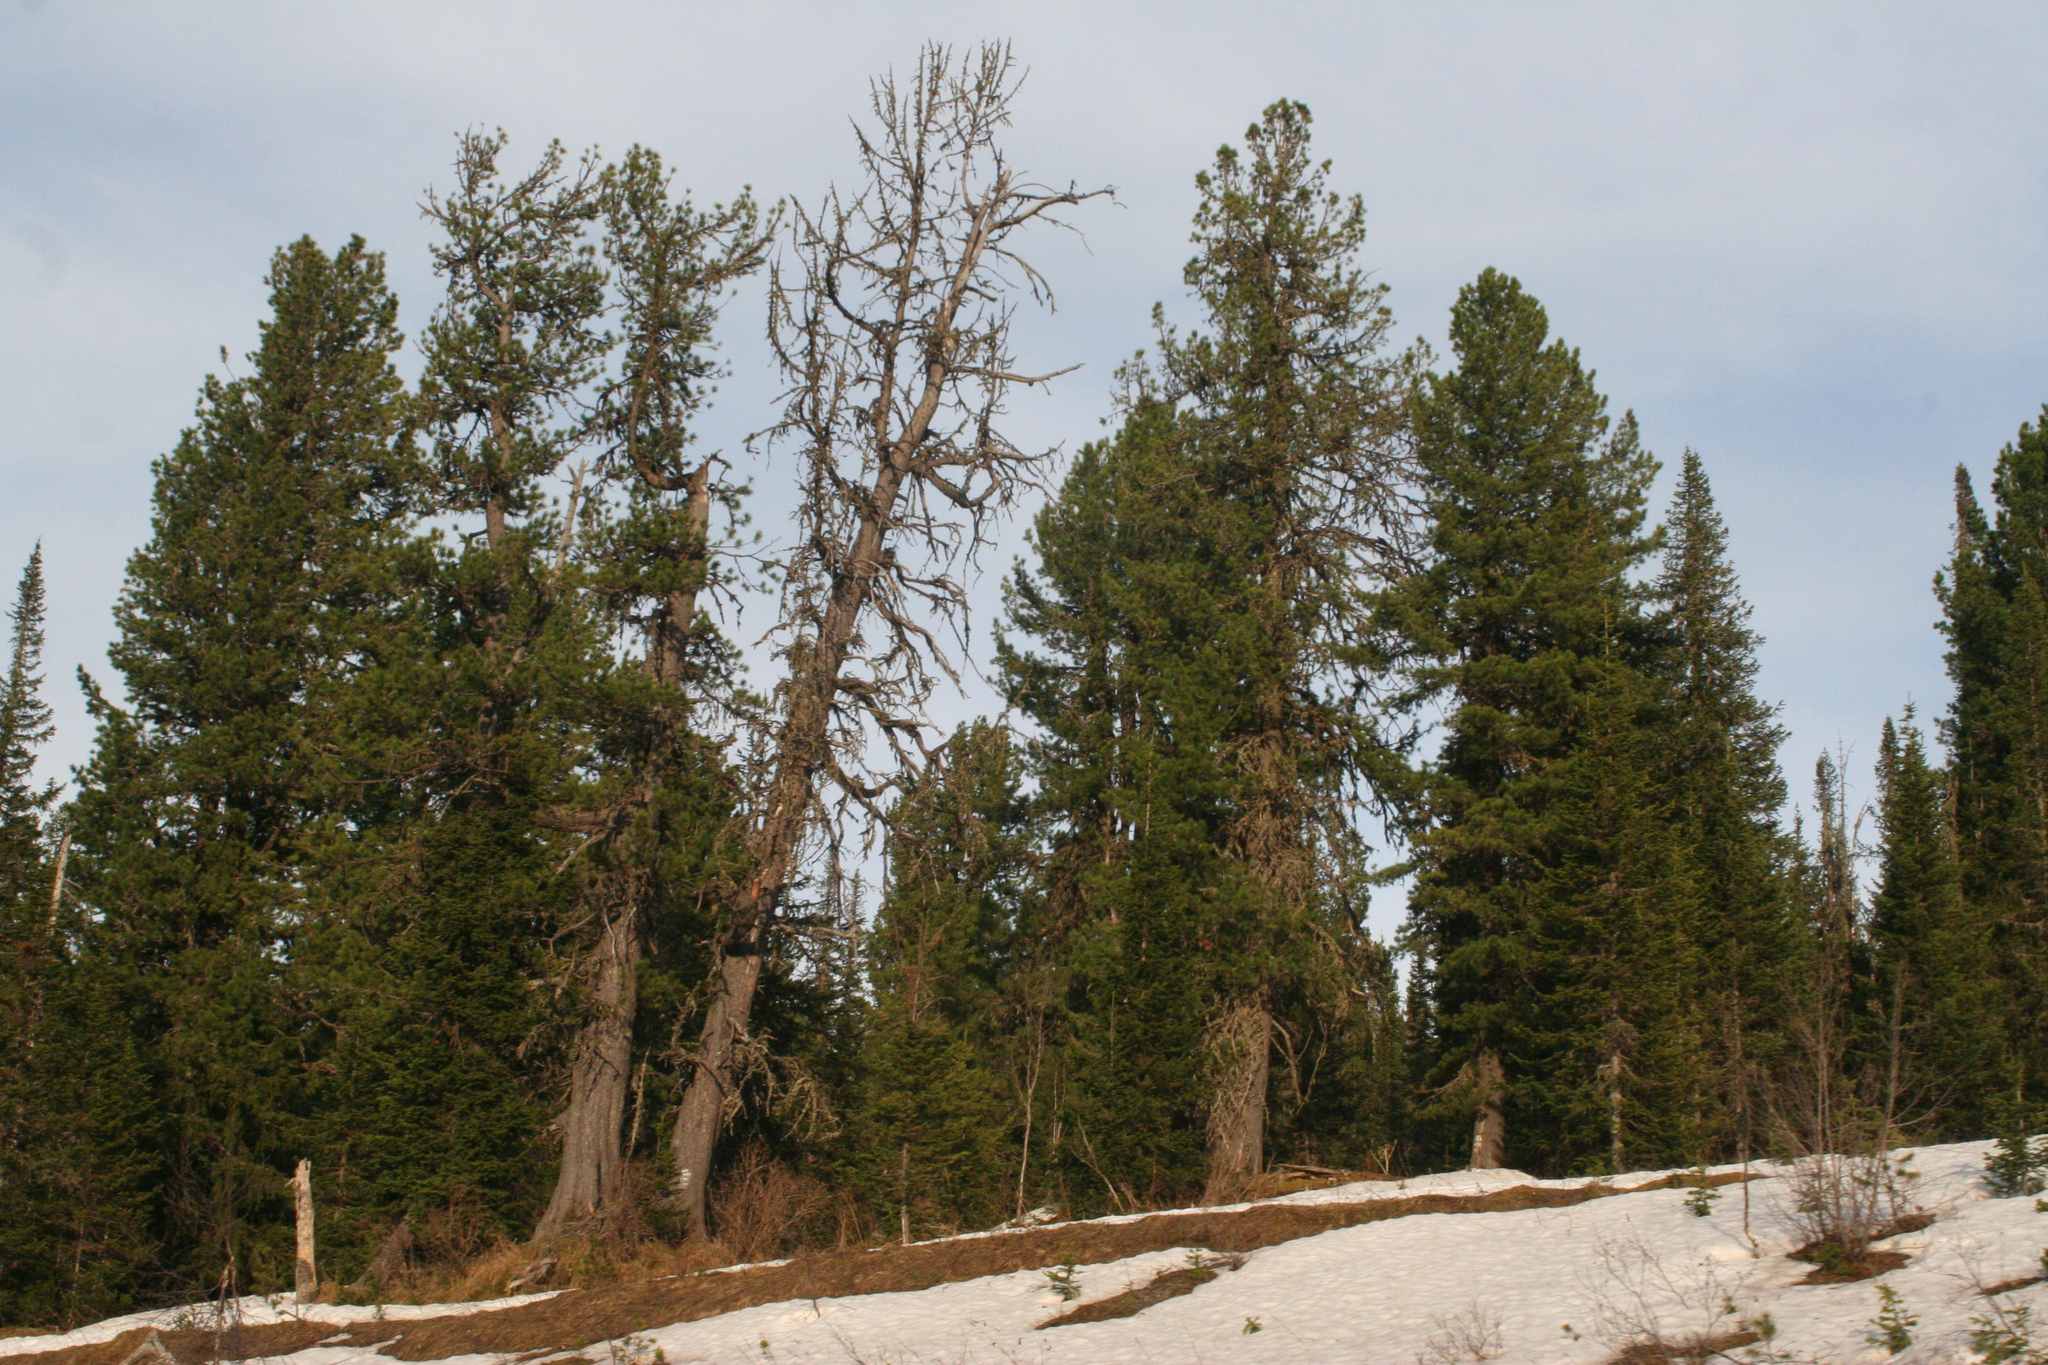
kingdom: Plantae
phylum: Tracheophyta
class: Pinopsida
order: Pinales
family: Pinaceae
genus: Pinus
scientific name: Pinus sibirica
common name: Siberian pine
